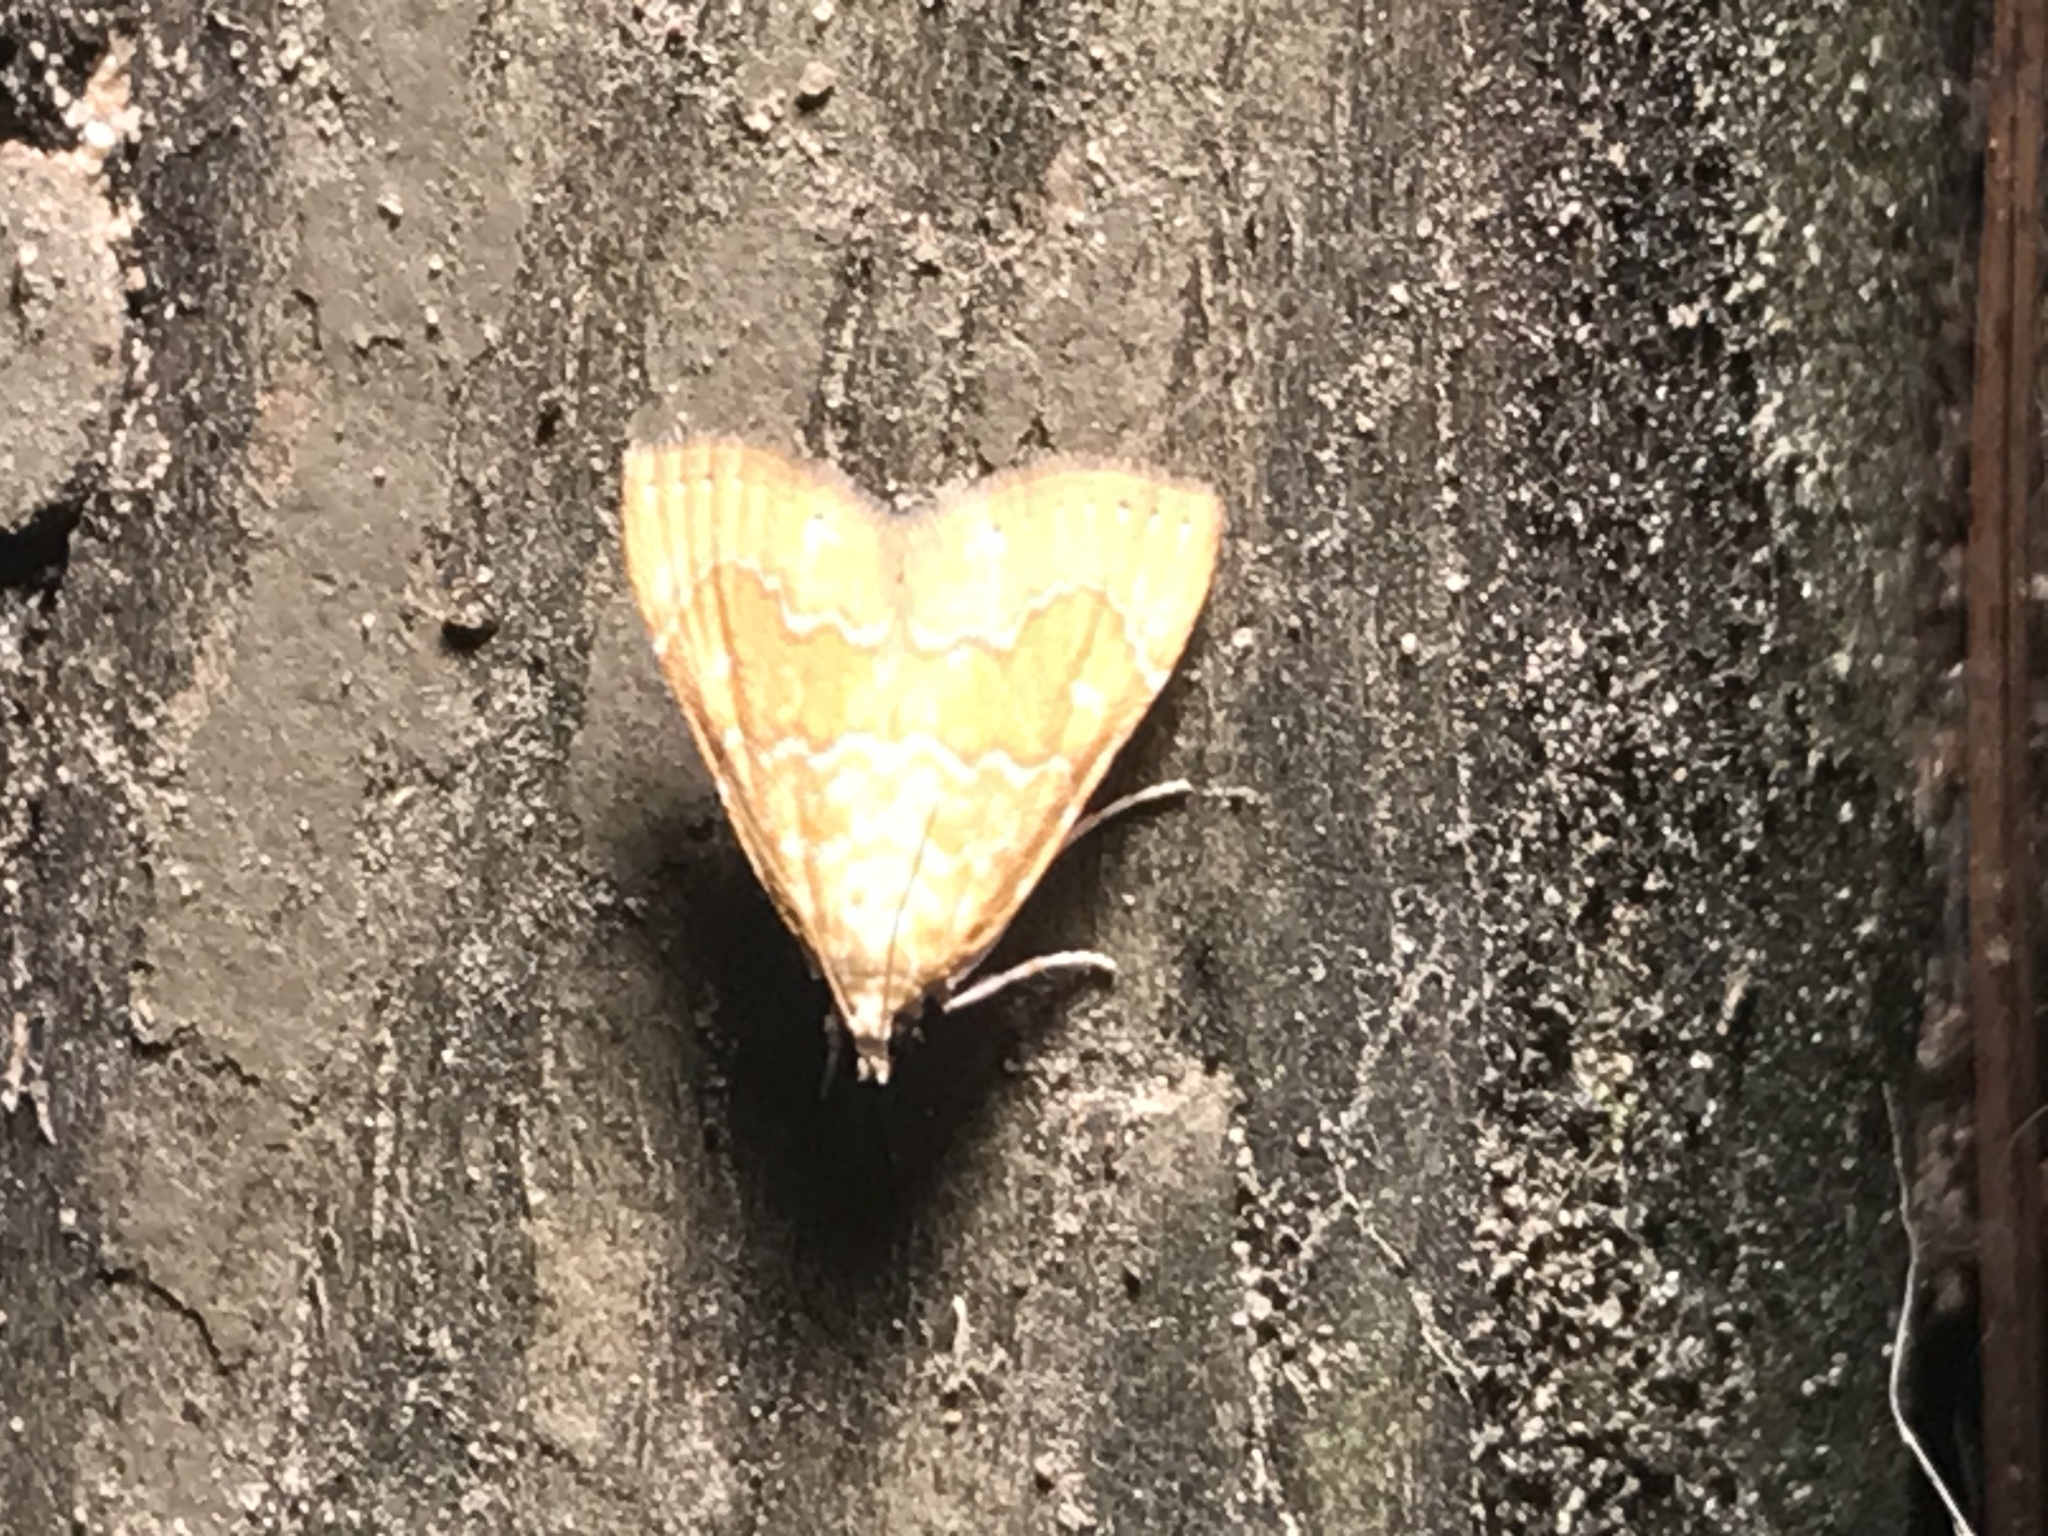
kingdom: Animalia
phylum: Arthropoda
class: Insecta
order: Lepidoptera
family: Crambidae
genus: Glaphyria
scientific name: Glaphyria sesquistrialis
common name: White-roped glaphyria
